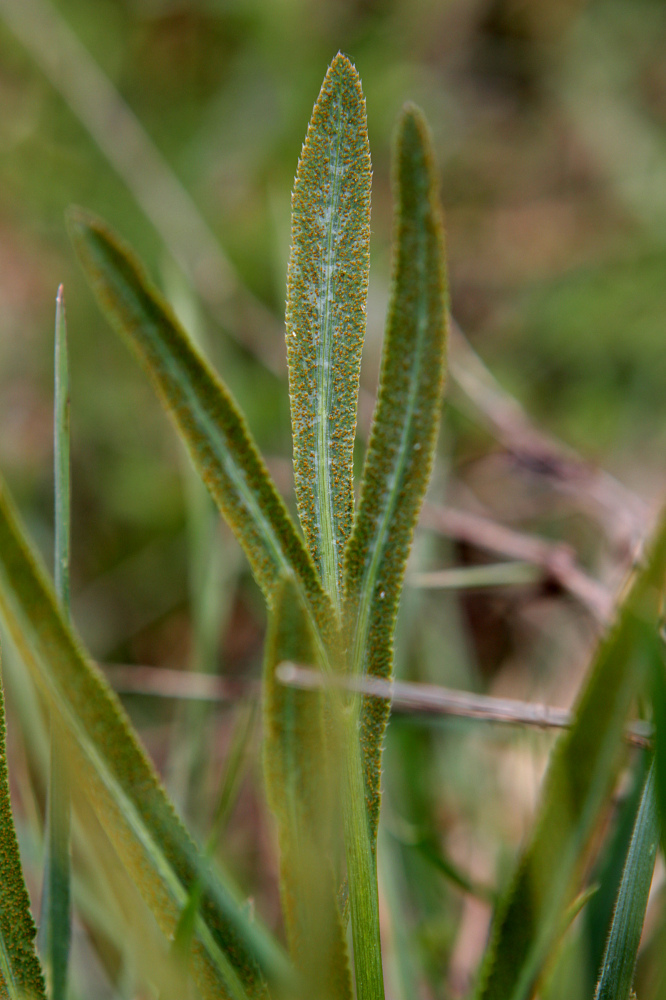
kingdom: Plantae
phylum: Tracheophyta
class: Magnoliopsida
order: Apiales
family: Apiaceae
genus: Falcaria
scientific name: Falcaria vulgaris
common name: Longleaf
